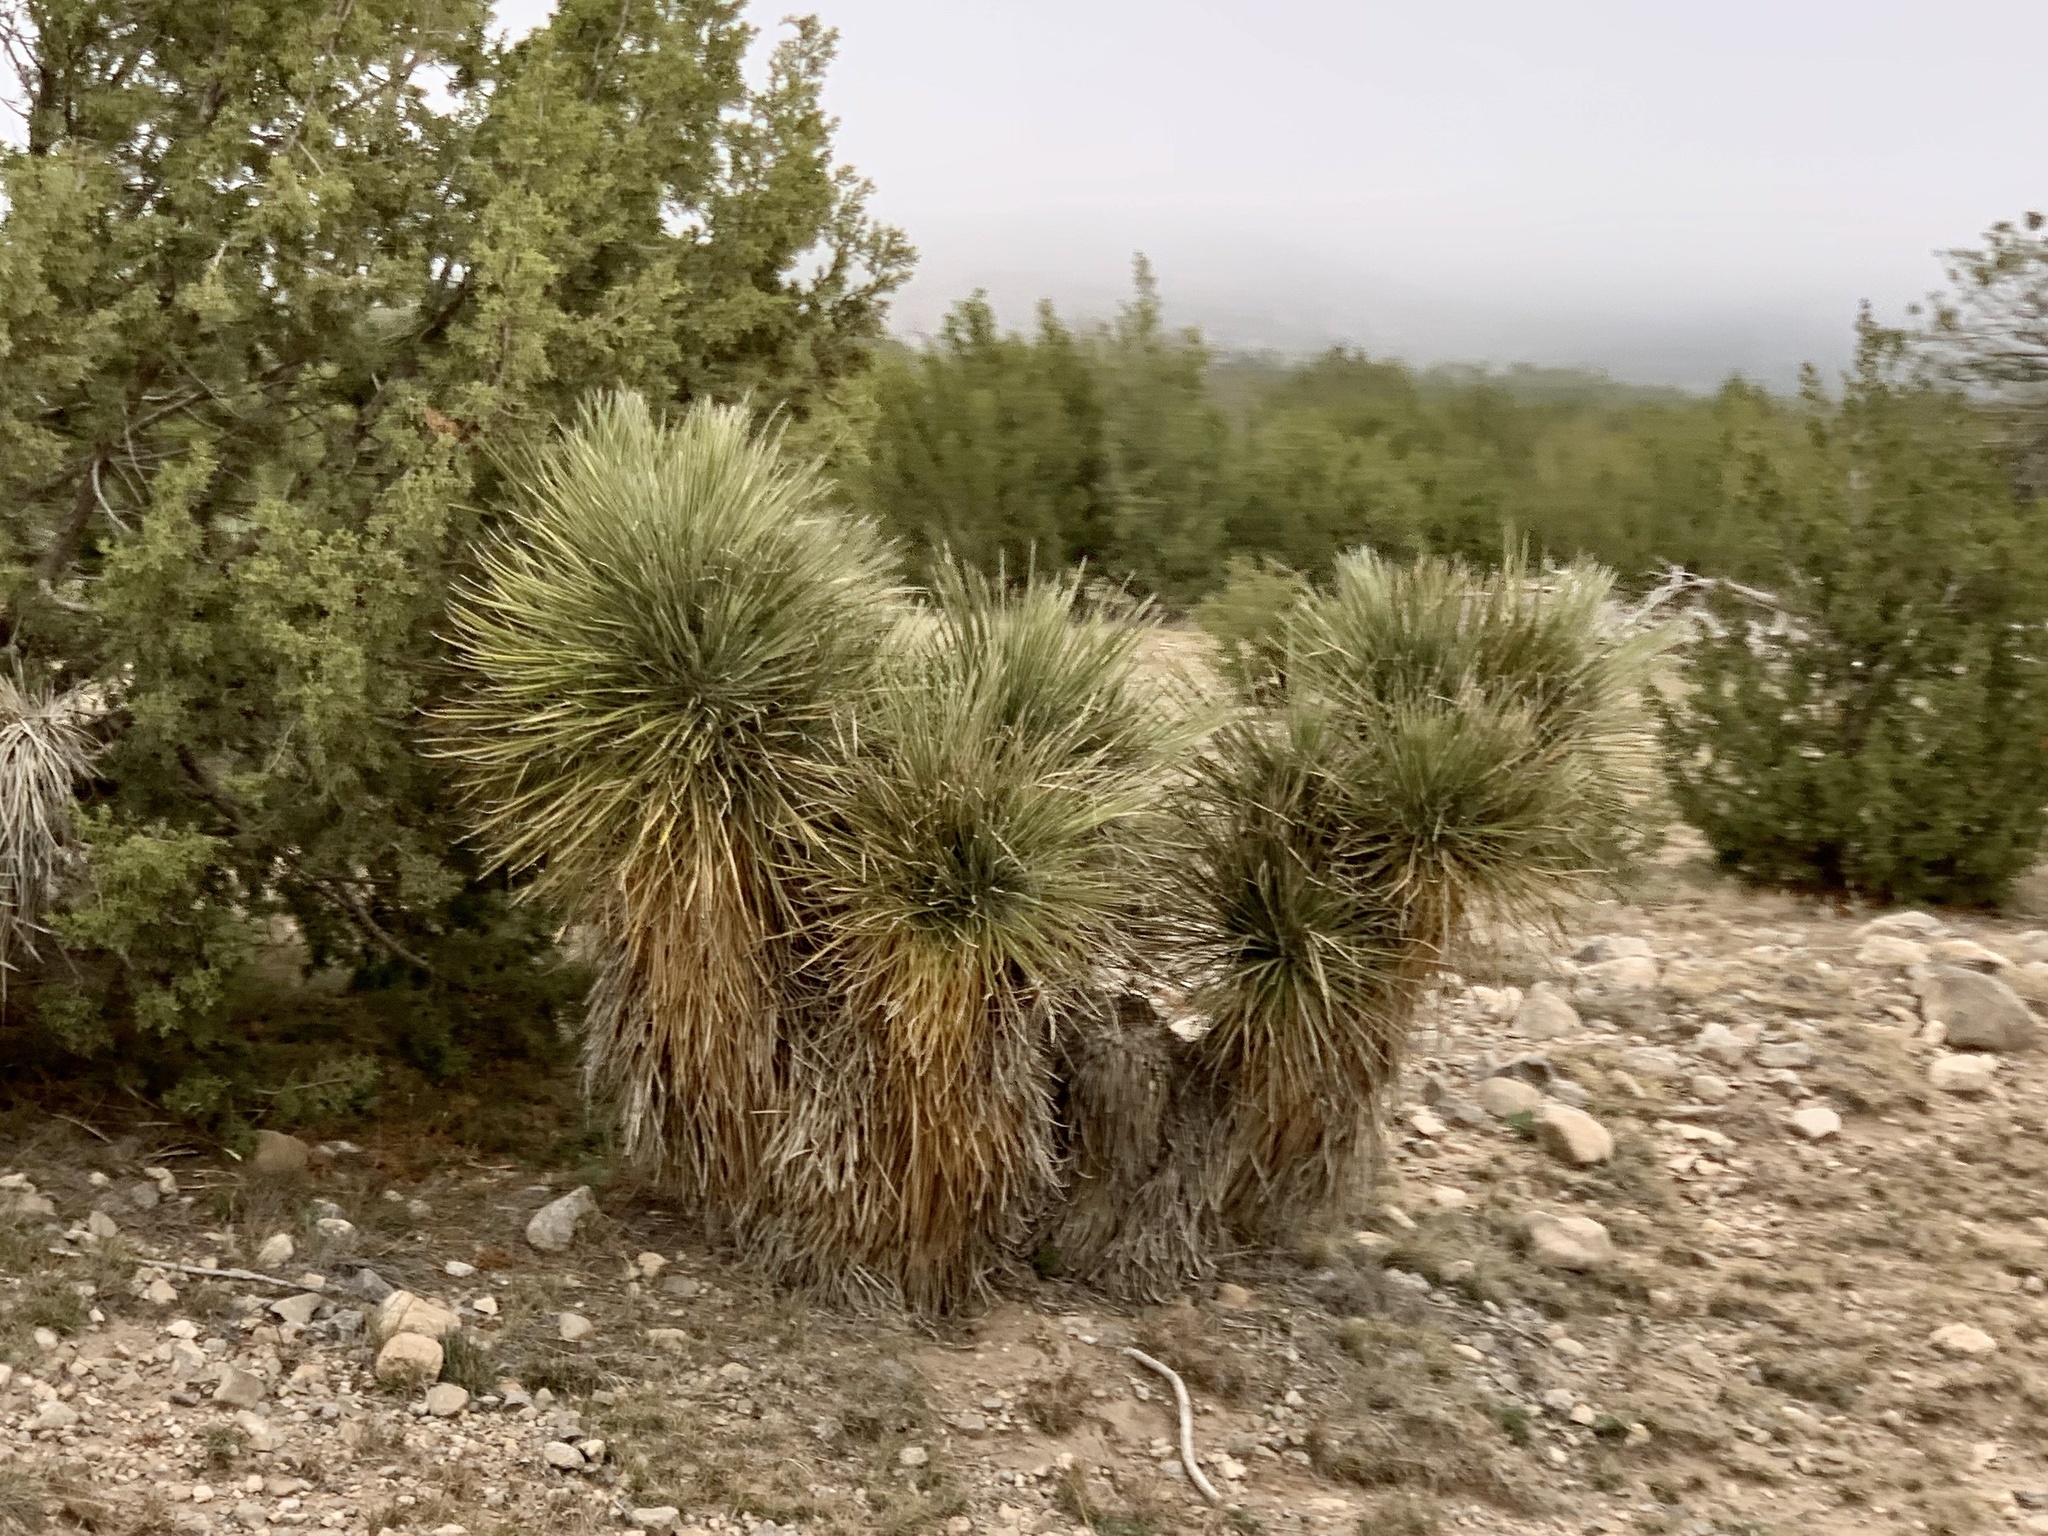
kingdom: Plantae
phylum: Tracheophyta
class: Liliopsida
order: Asparagales
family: Asparagaceae
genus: Yucca
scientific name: Yucca elata
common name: Palmella
